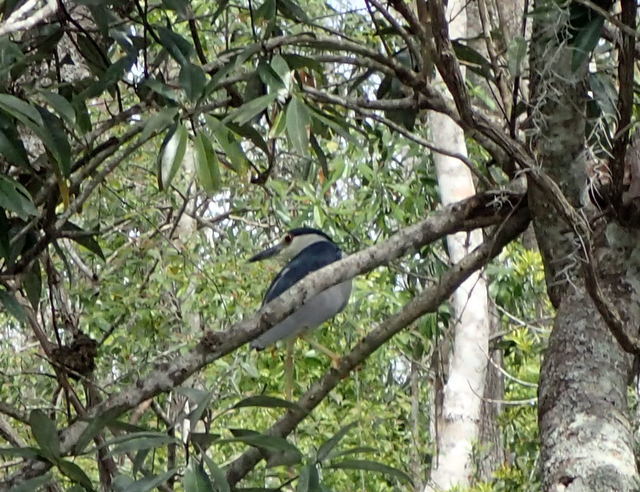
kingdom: Animalia
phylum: Chordata
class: Aves
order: Pelecaniformes
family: Ardeidae
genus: Nycticorax
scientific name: Nycticorax nycticorax
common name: Black-crowned night heron
